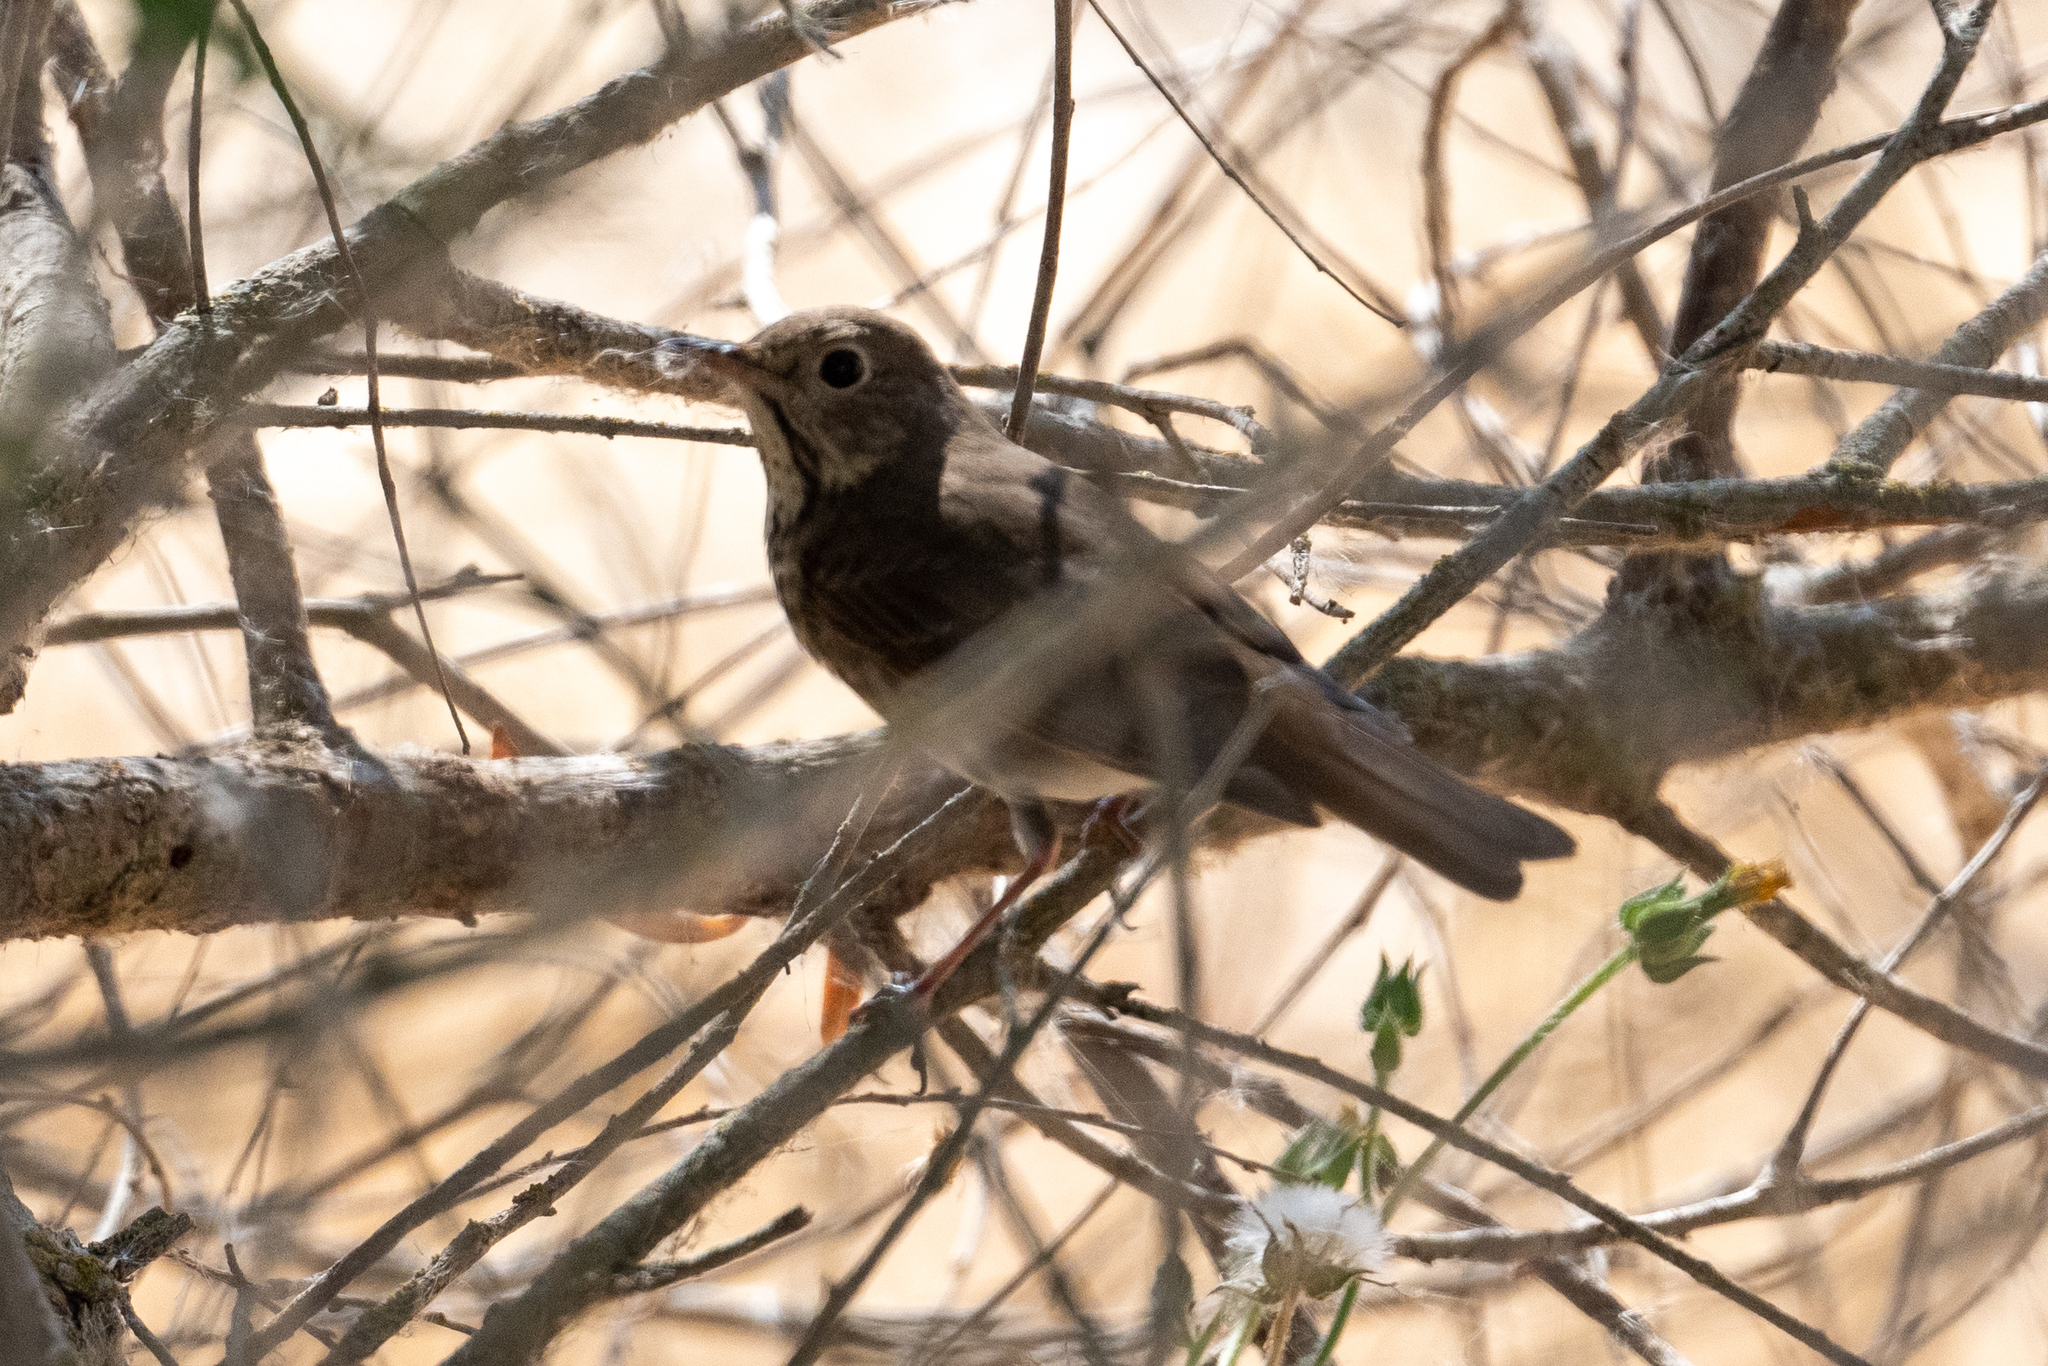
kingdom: Animalia
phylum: Chordata
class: Aves
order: Passeriformes
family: Turdidae
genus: Catharus
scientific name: Catharus ustulatus
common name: Swainson's thrush
